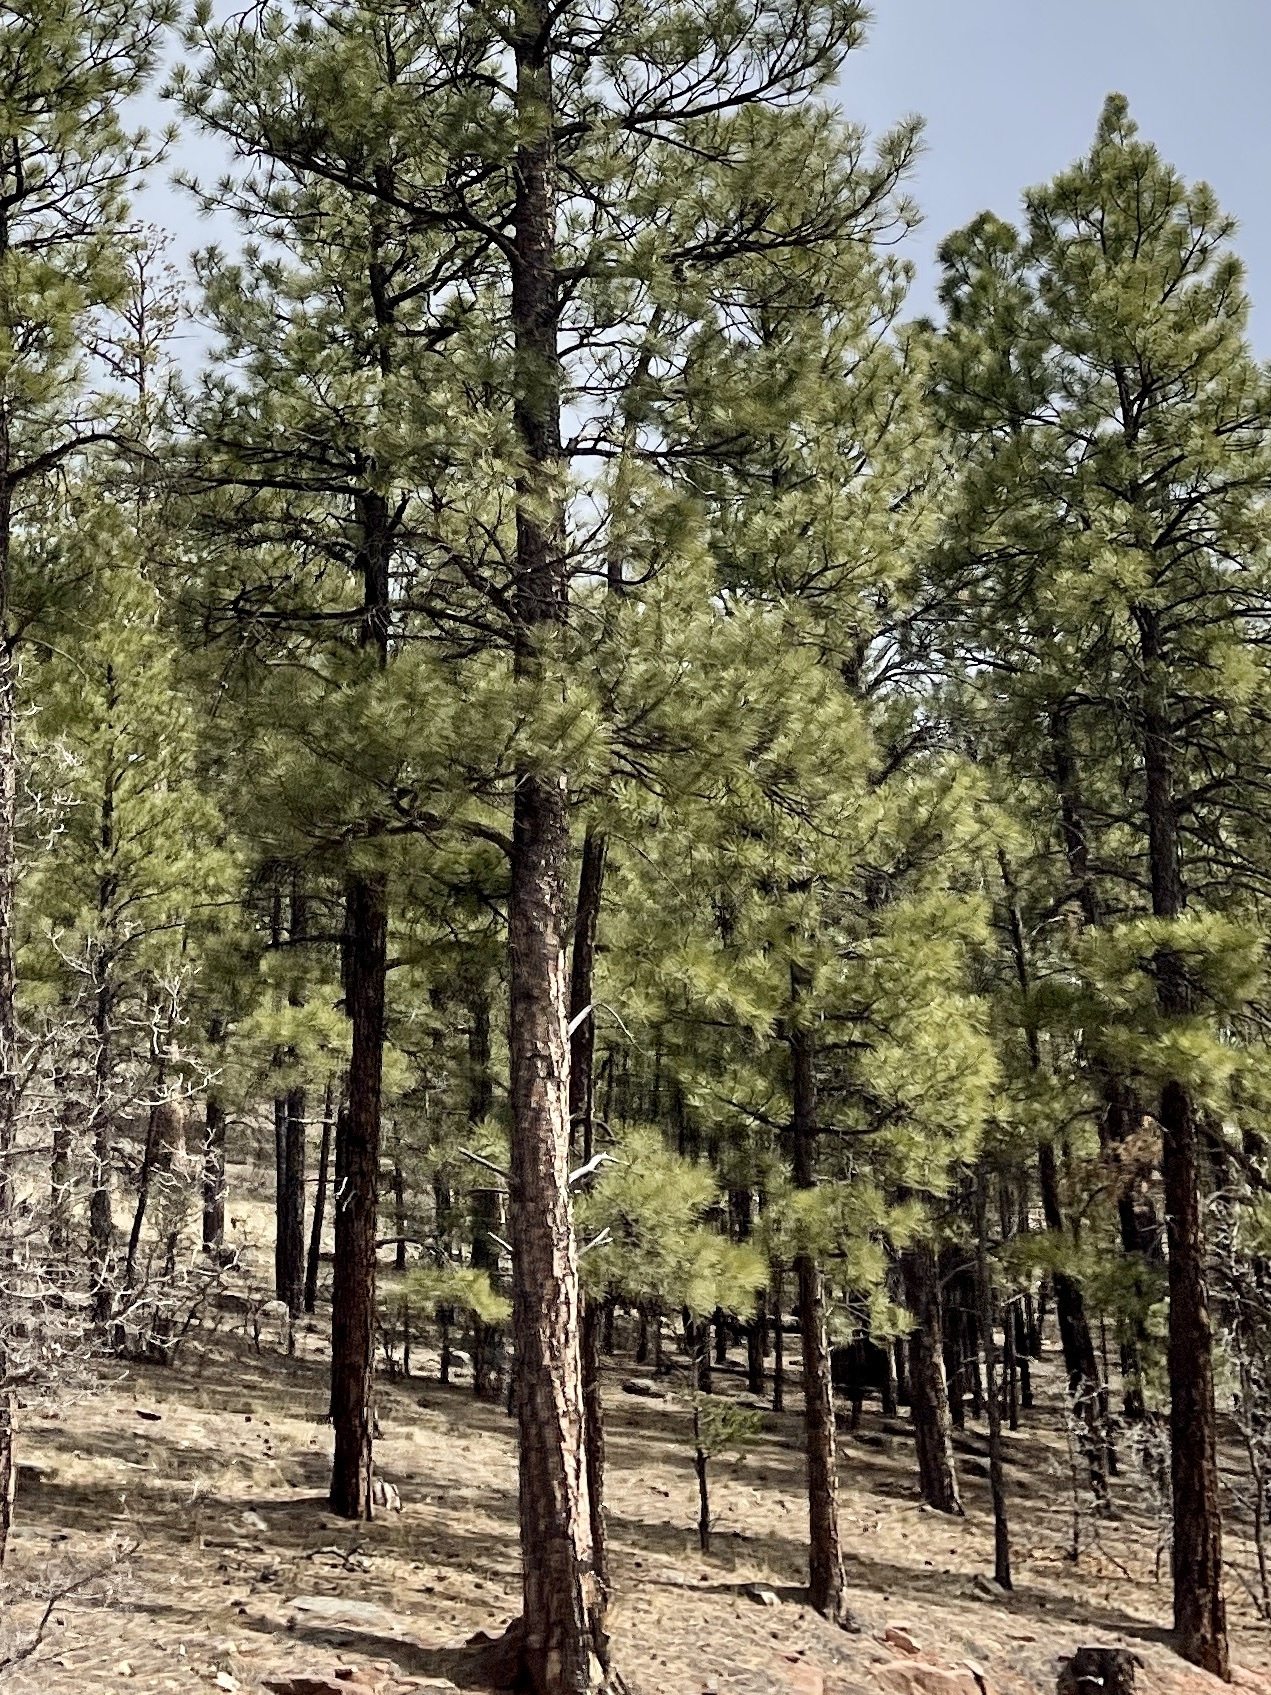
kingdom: Plantae
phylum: Tracheophyta
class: Pinopsida
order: Pinales
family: Pinaceae
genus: Pinus
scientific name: Pinus ponderosa
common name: Western yellow-pine
